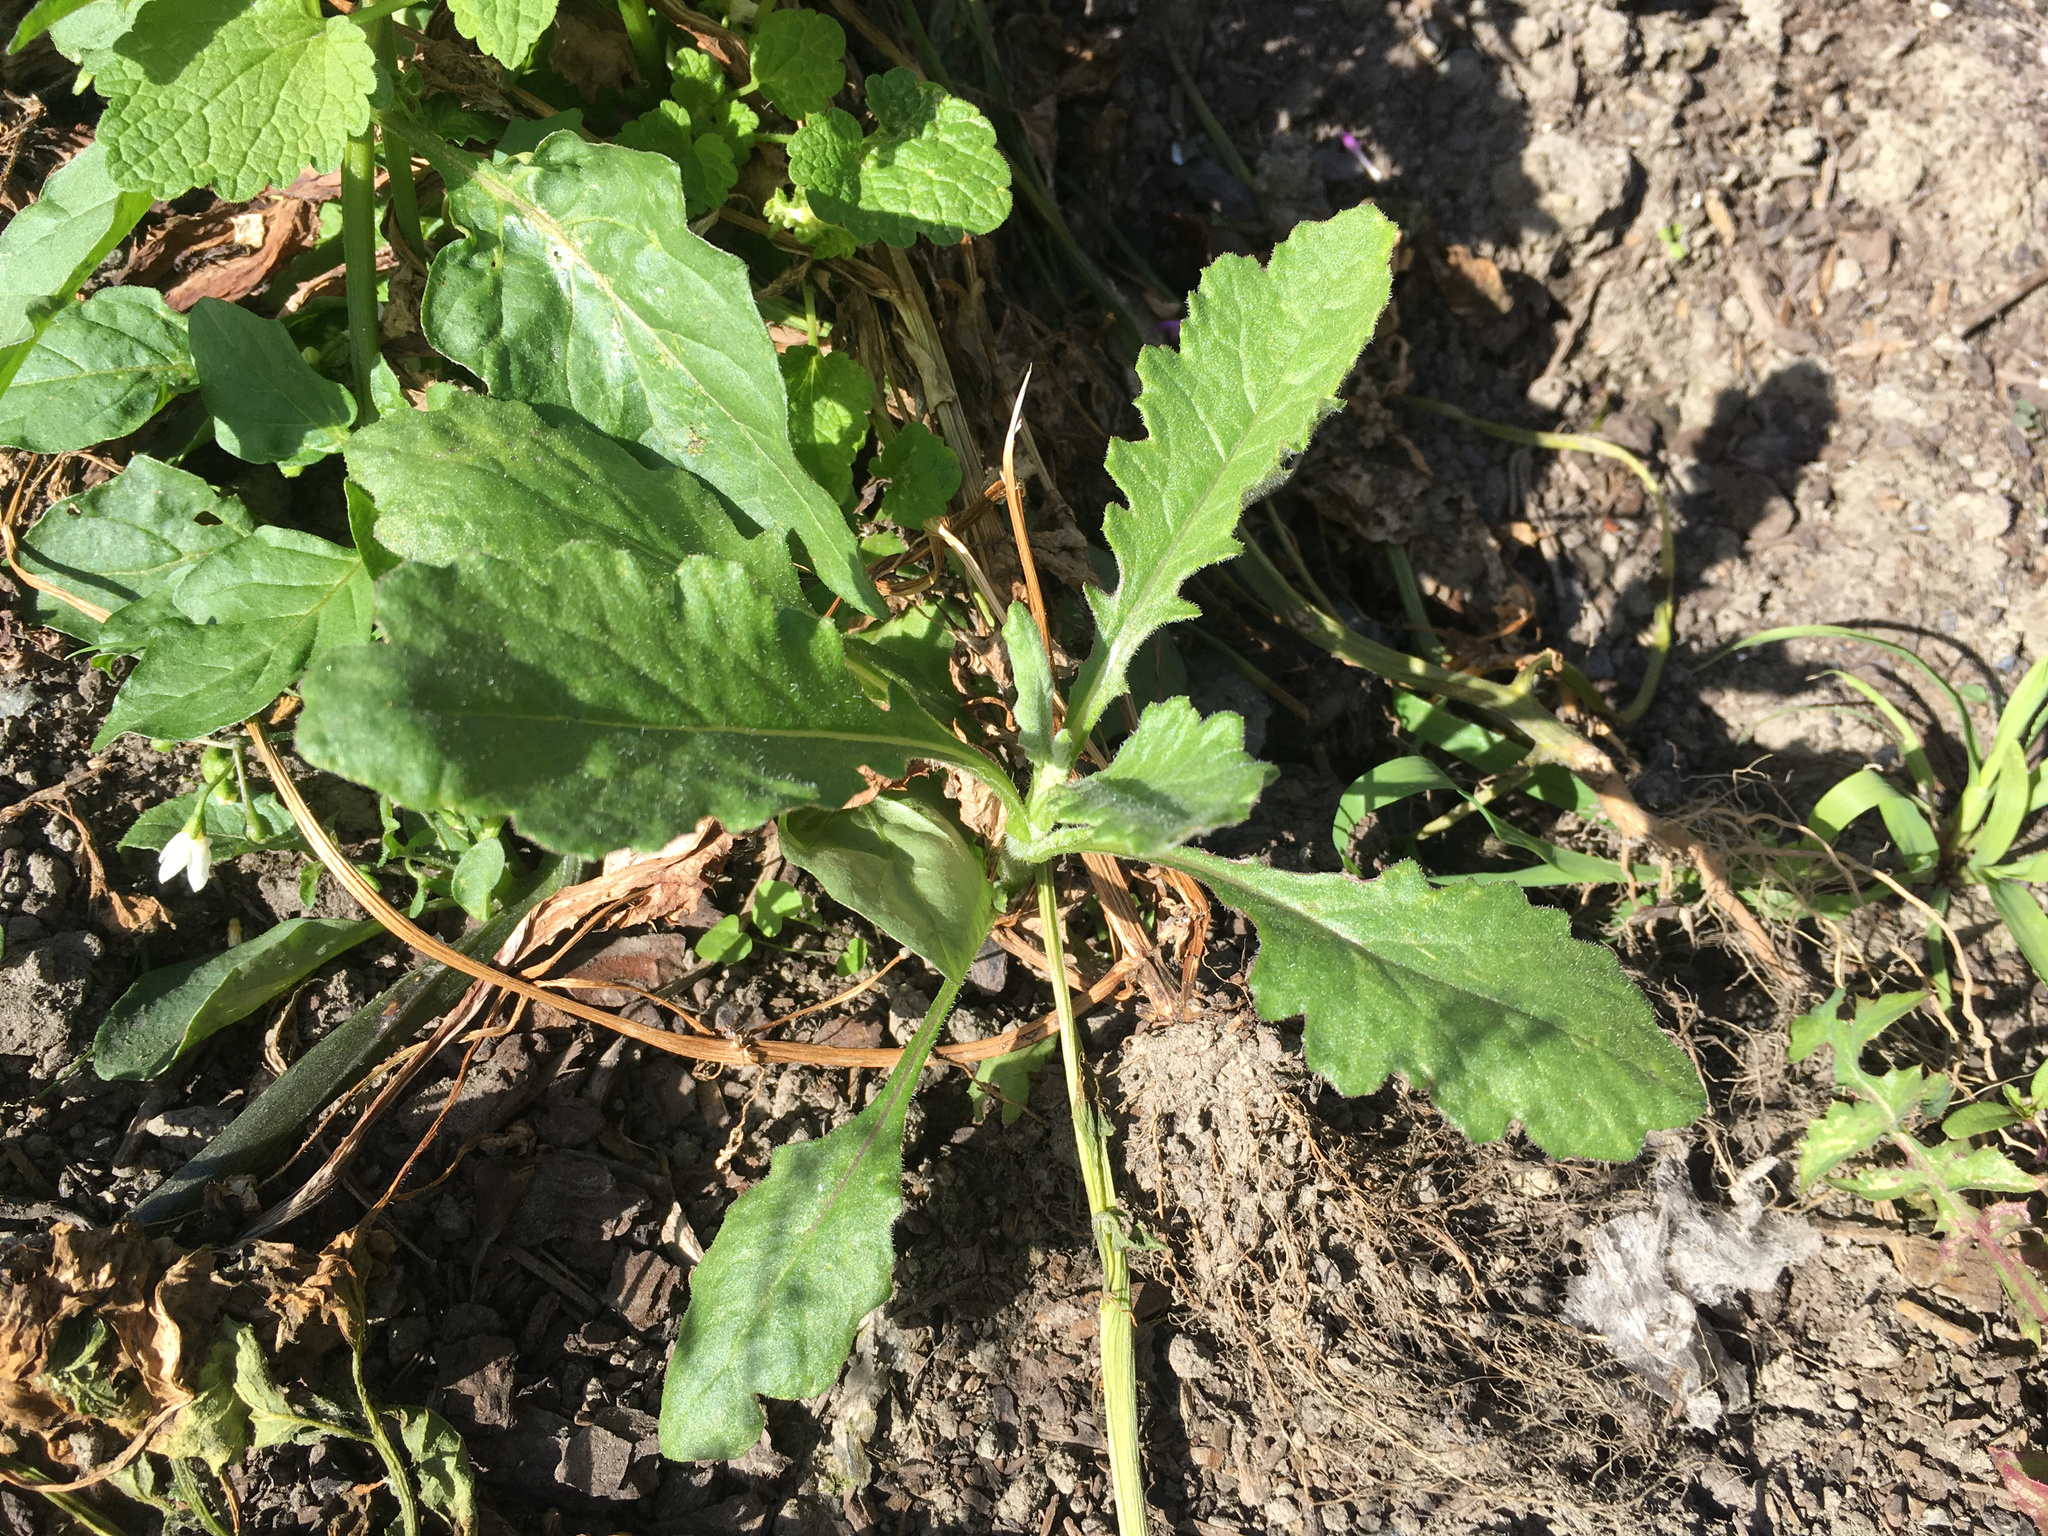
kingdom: Plantae
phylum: Tracheophyta
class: Magnoliopsida
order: Asterales
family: Asteraceae
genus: Senecio
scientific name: Senecio glomeratus
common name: Cutleaf burnweed
